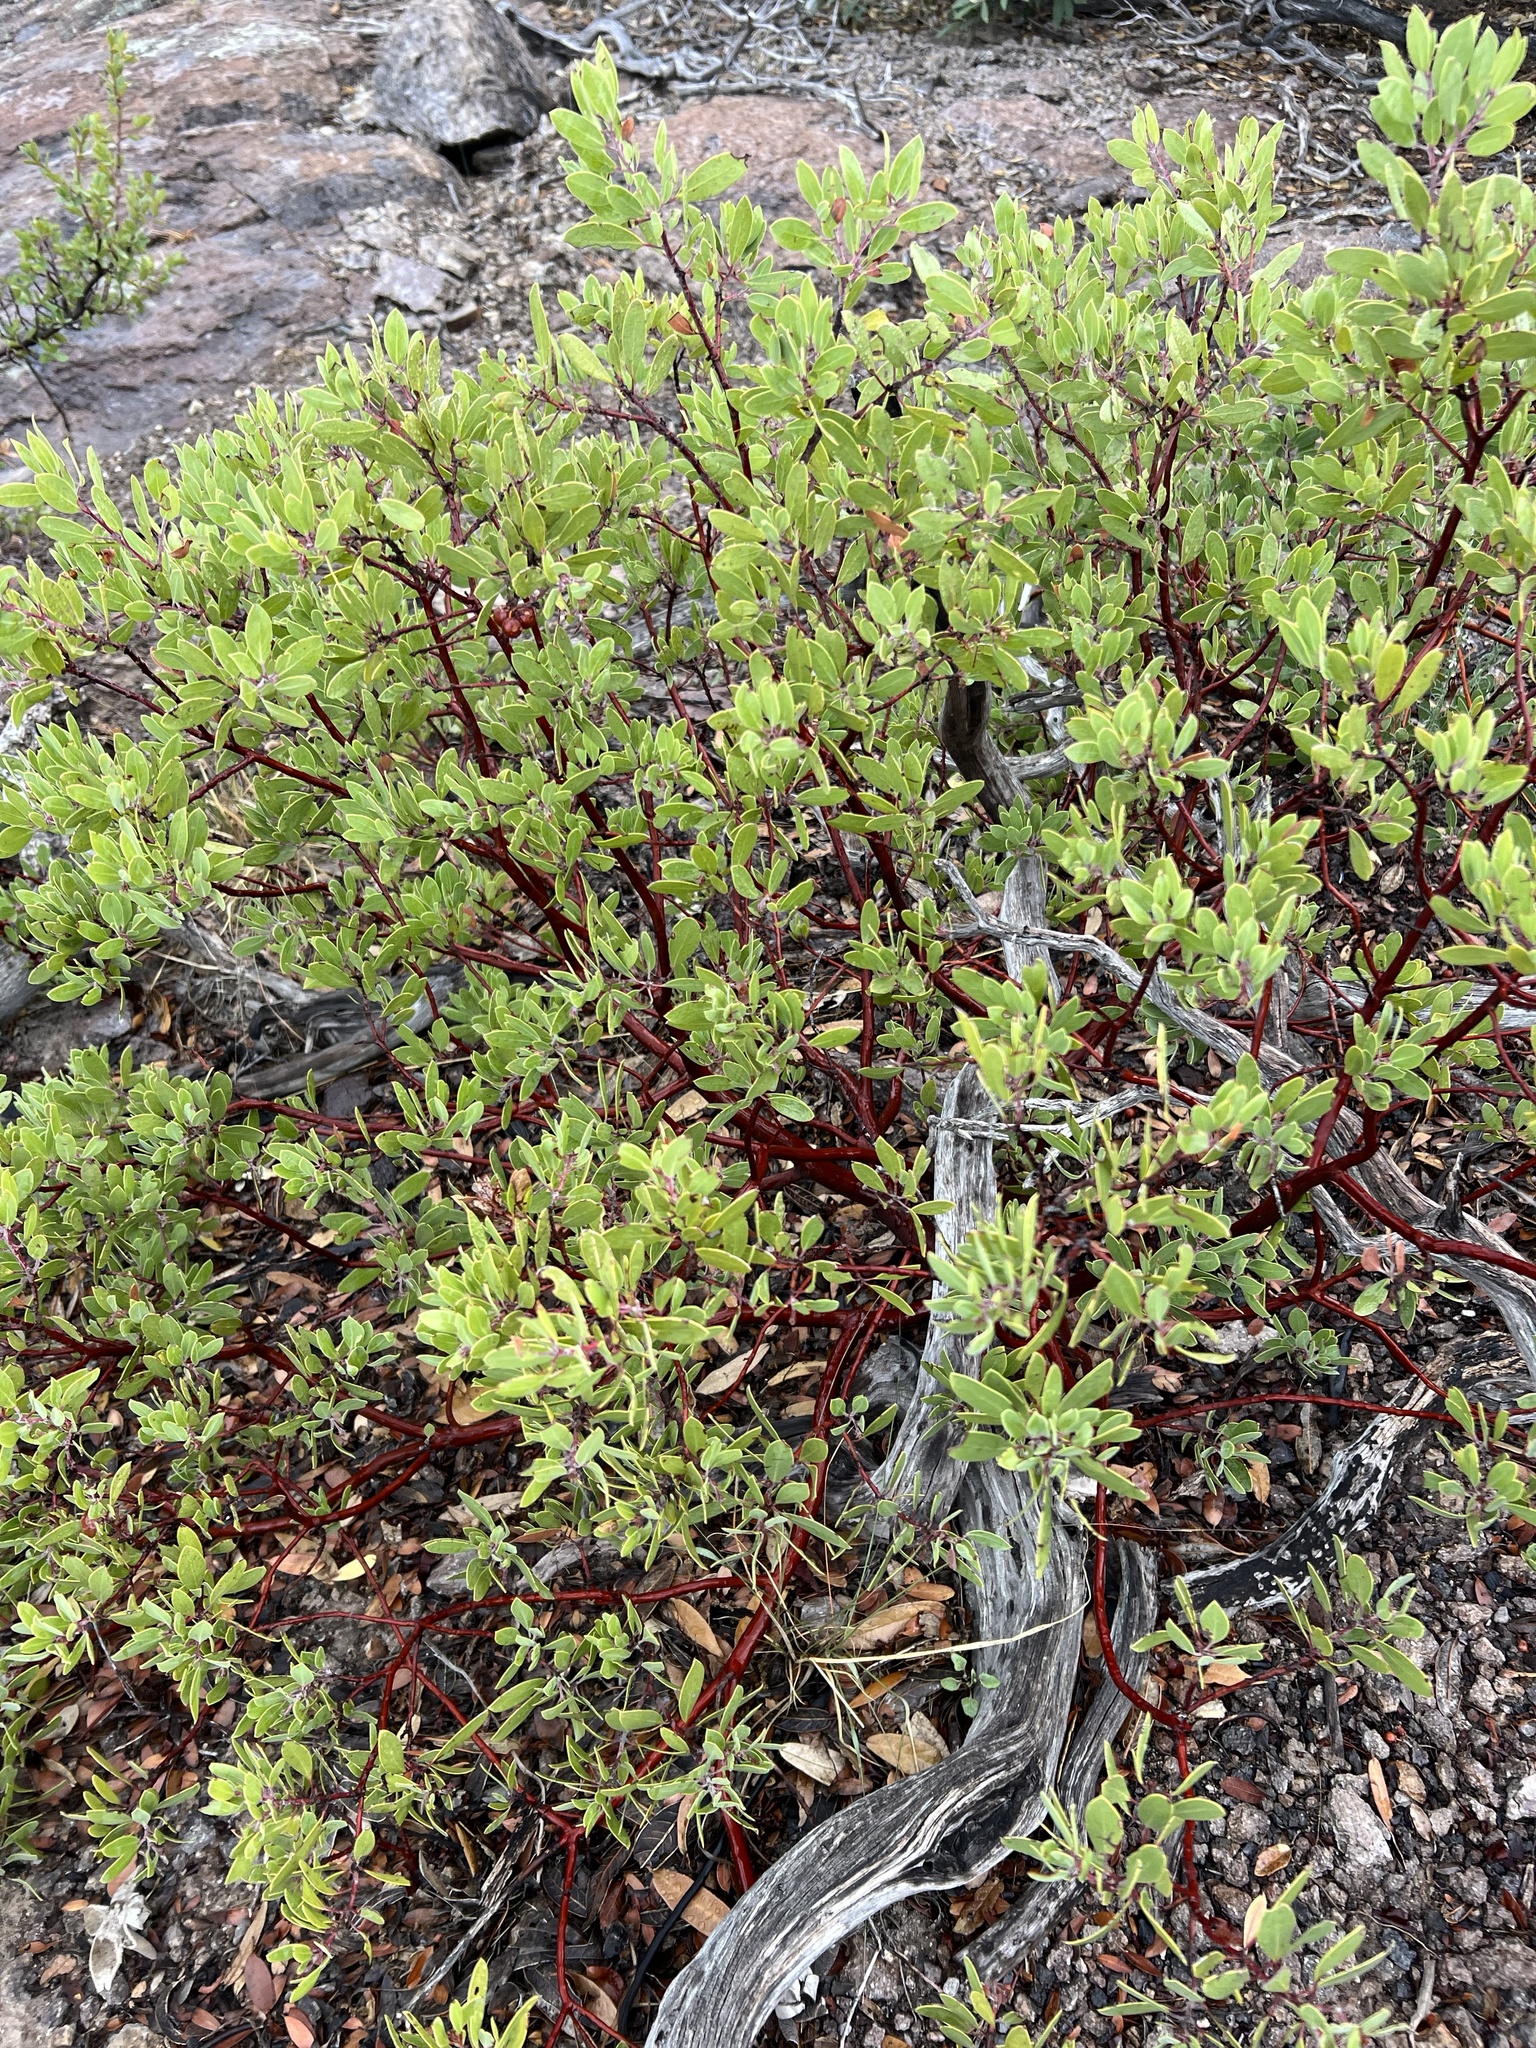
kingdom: Plantae
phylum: Tracheophyta
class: Magnoliopsida
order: Ericales
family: Ericaceae
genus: Arctostaphylos
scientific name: Arctostaphylos pungens
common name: Mexican manzanita
